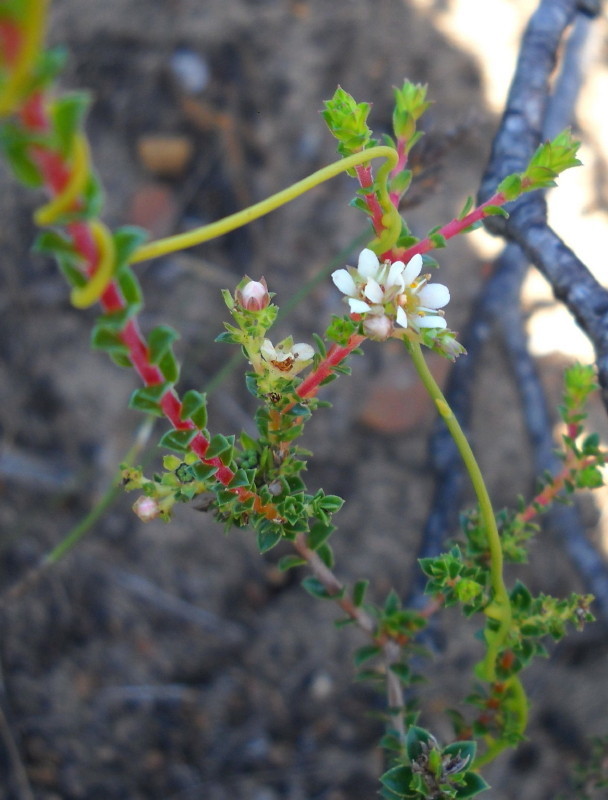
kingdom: Plantae
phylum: Tracheophyta
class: Magnoliopsida
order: Sapindales
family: Rutaceae
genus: Diosma
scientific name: Diosma echinulata
